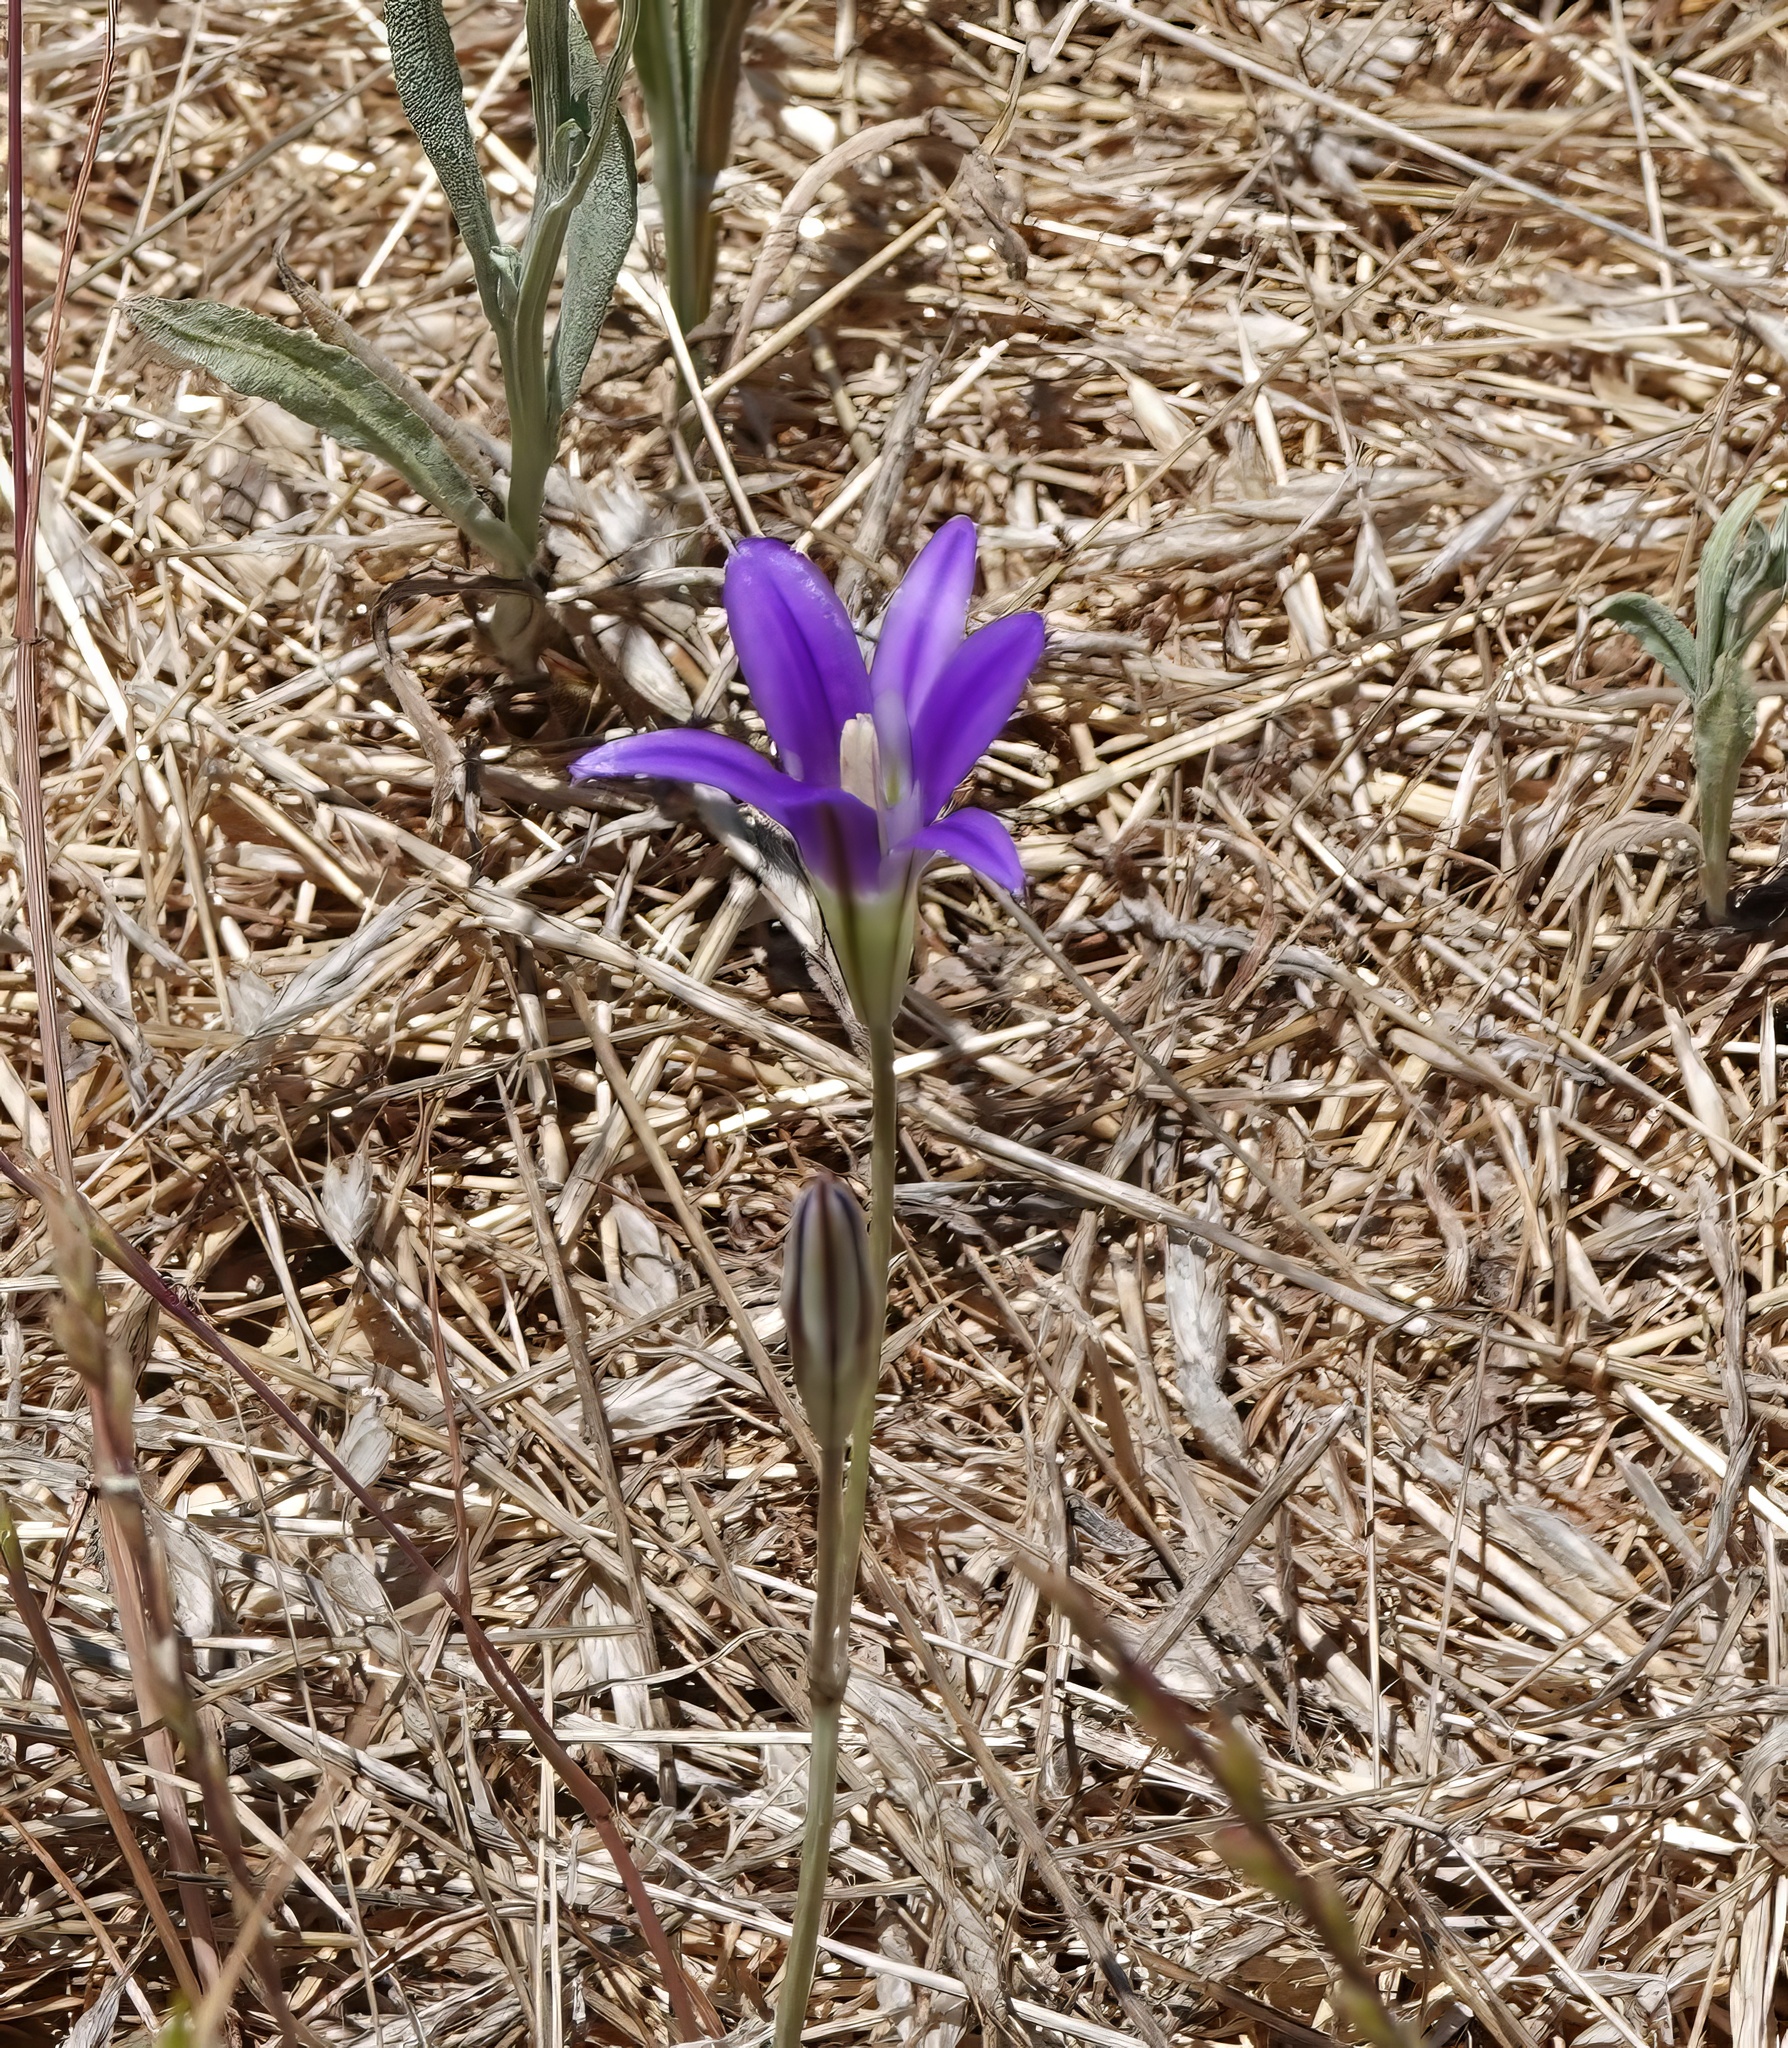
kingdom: Plantae
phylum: Tracheophyta
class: Liliopsida
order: Asparagales
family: Asparagaceae
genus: Brodiaea
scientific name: Brodiaea elegans
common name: Elegant cluster-lily
